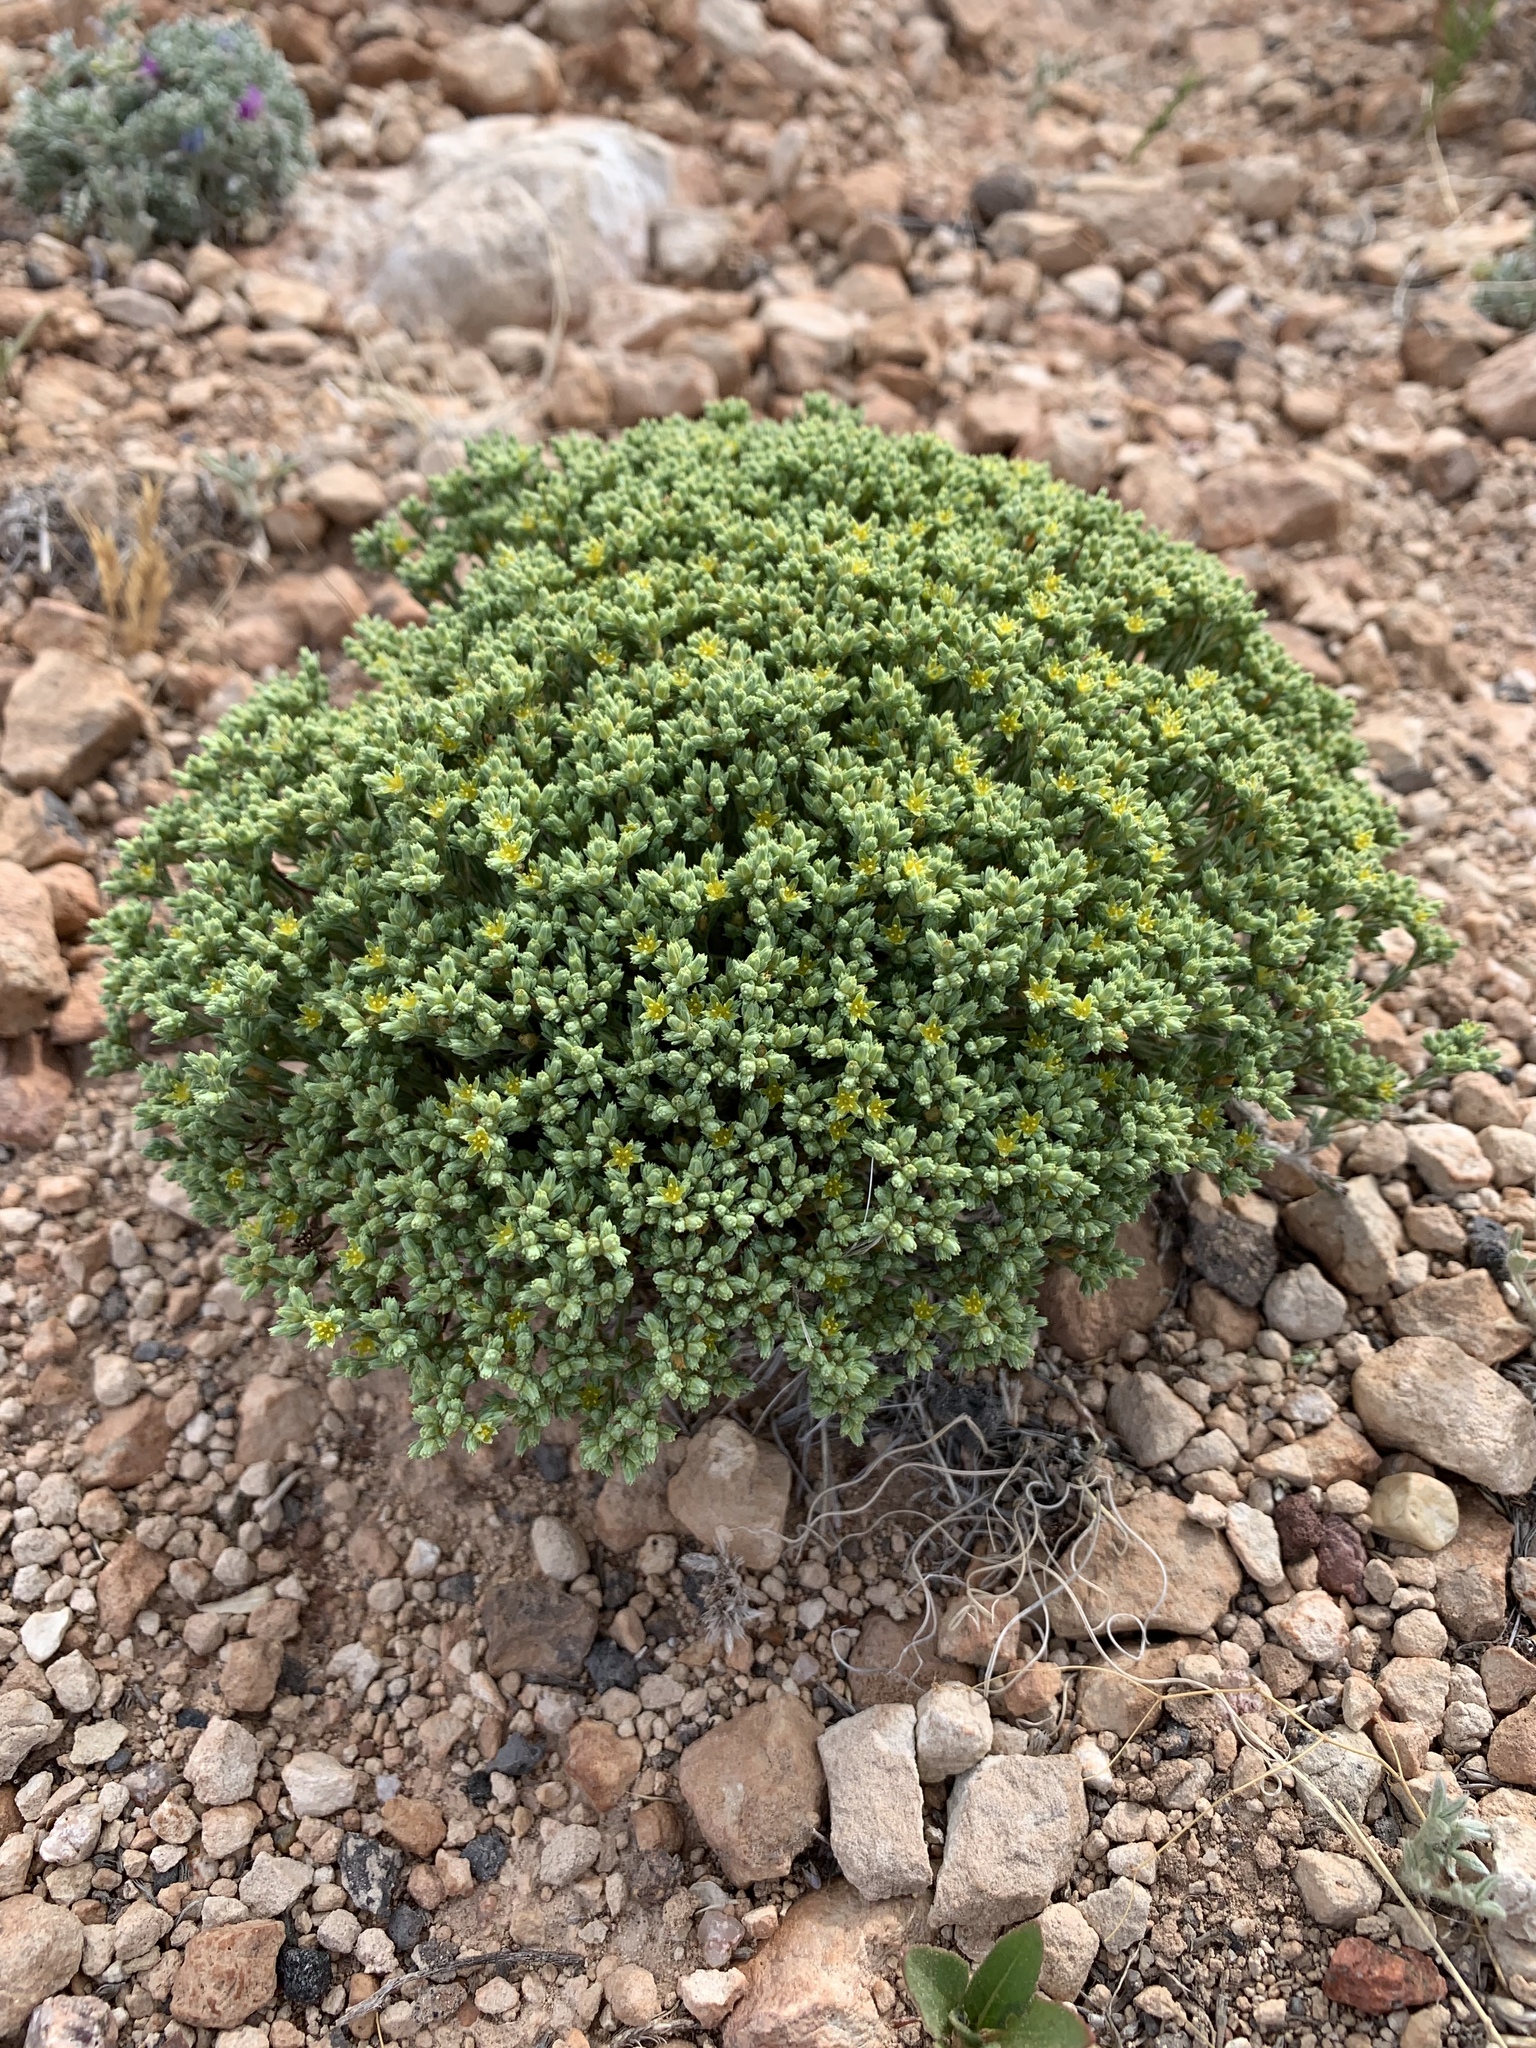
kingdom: Plantae
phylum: Tracheophyta
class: Magnoliopsida
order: Caryophyllales
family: Caryophyllaceae
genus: Paronychia
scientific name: Paronychia jamesii
